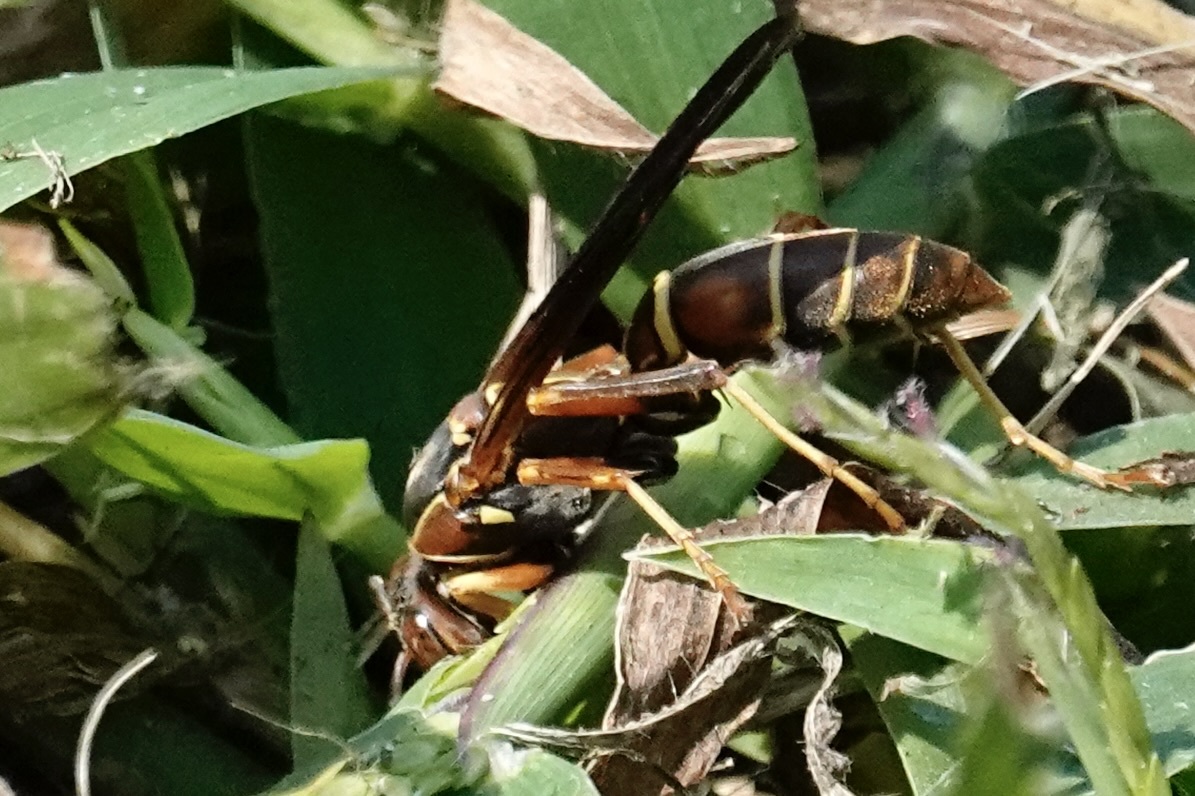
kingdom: Animalia
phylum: Arthropoda
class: Insecta
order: Hymenoptera
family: Eumenidae
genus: Polistes
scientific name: Polistes fuscatus
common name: Dark paper wasp
